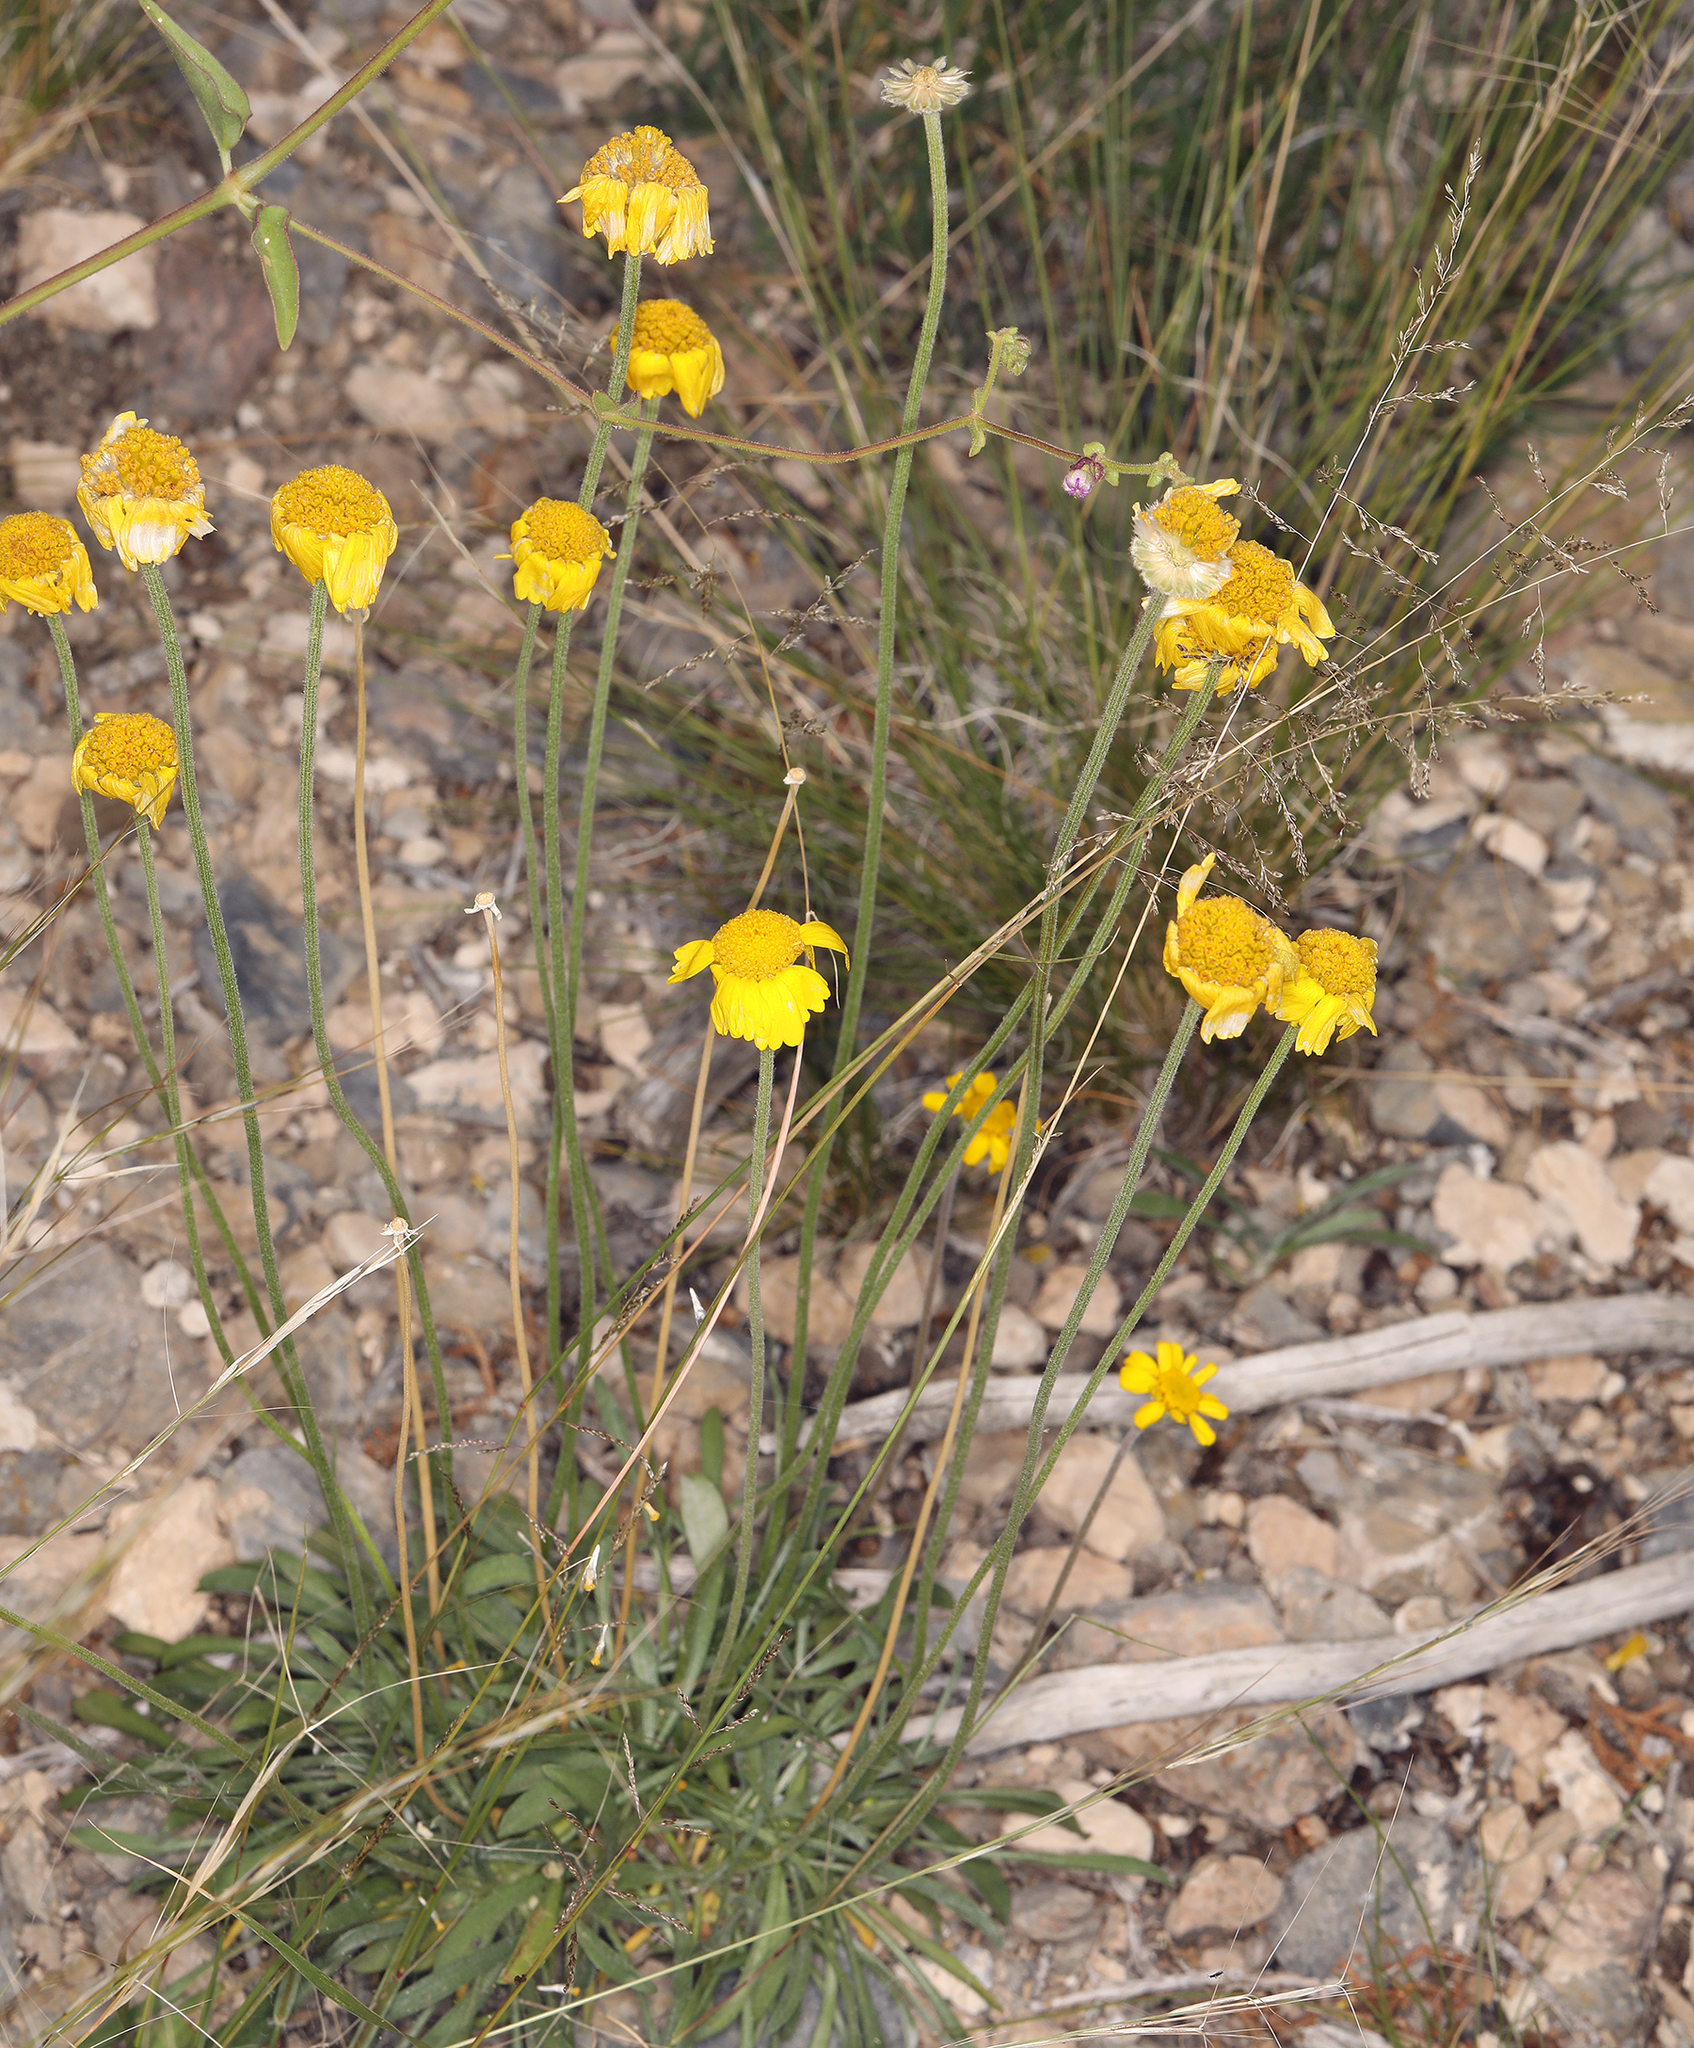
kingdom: Plantae
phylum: Tracheophyta
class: Magnoliopsida
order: Asterales
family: Asteraceae
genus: Tetraneuris
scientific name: Tetraneuris acaulis
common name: Butte marigold
